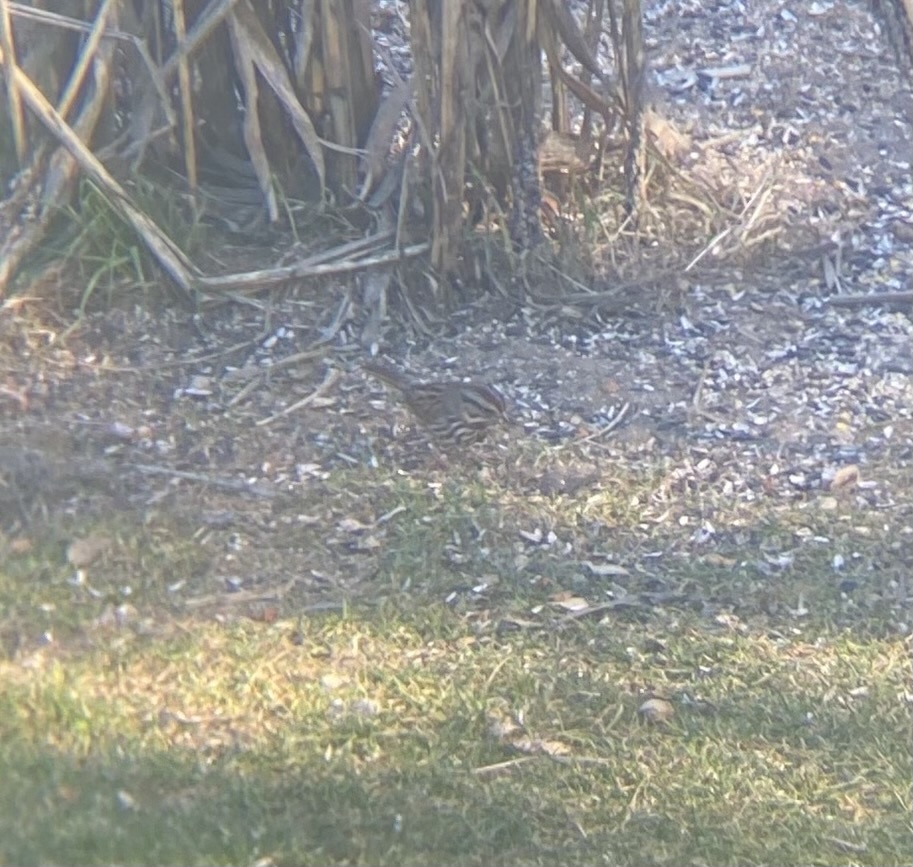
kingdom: Animalia
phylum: Chordata
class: Aves
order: Passeriformes
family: Passerellidae
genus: Melospiza
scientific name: Melospiza melodia
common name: Song sparrow
